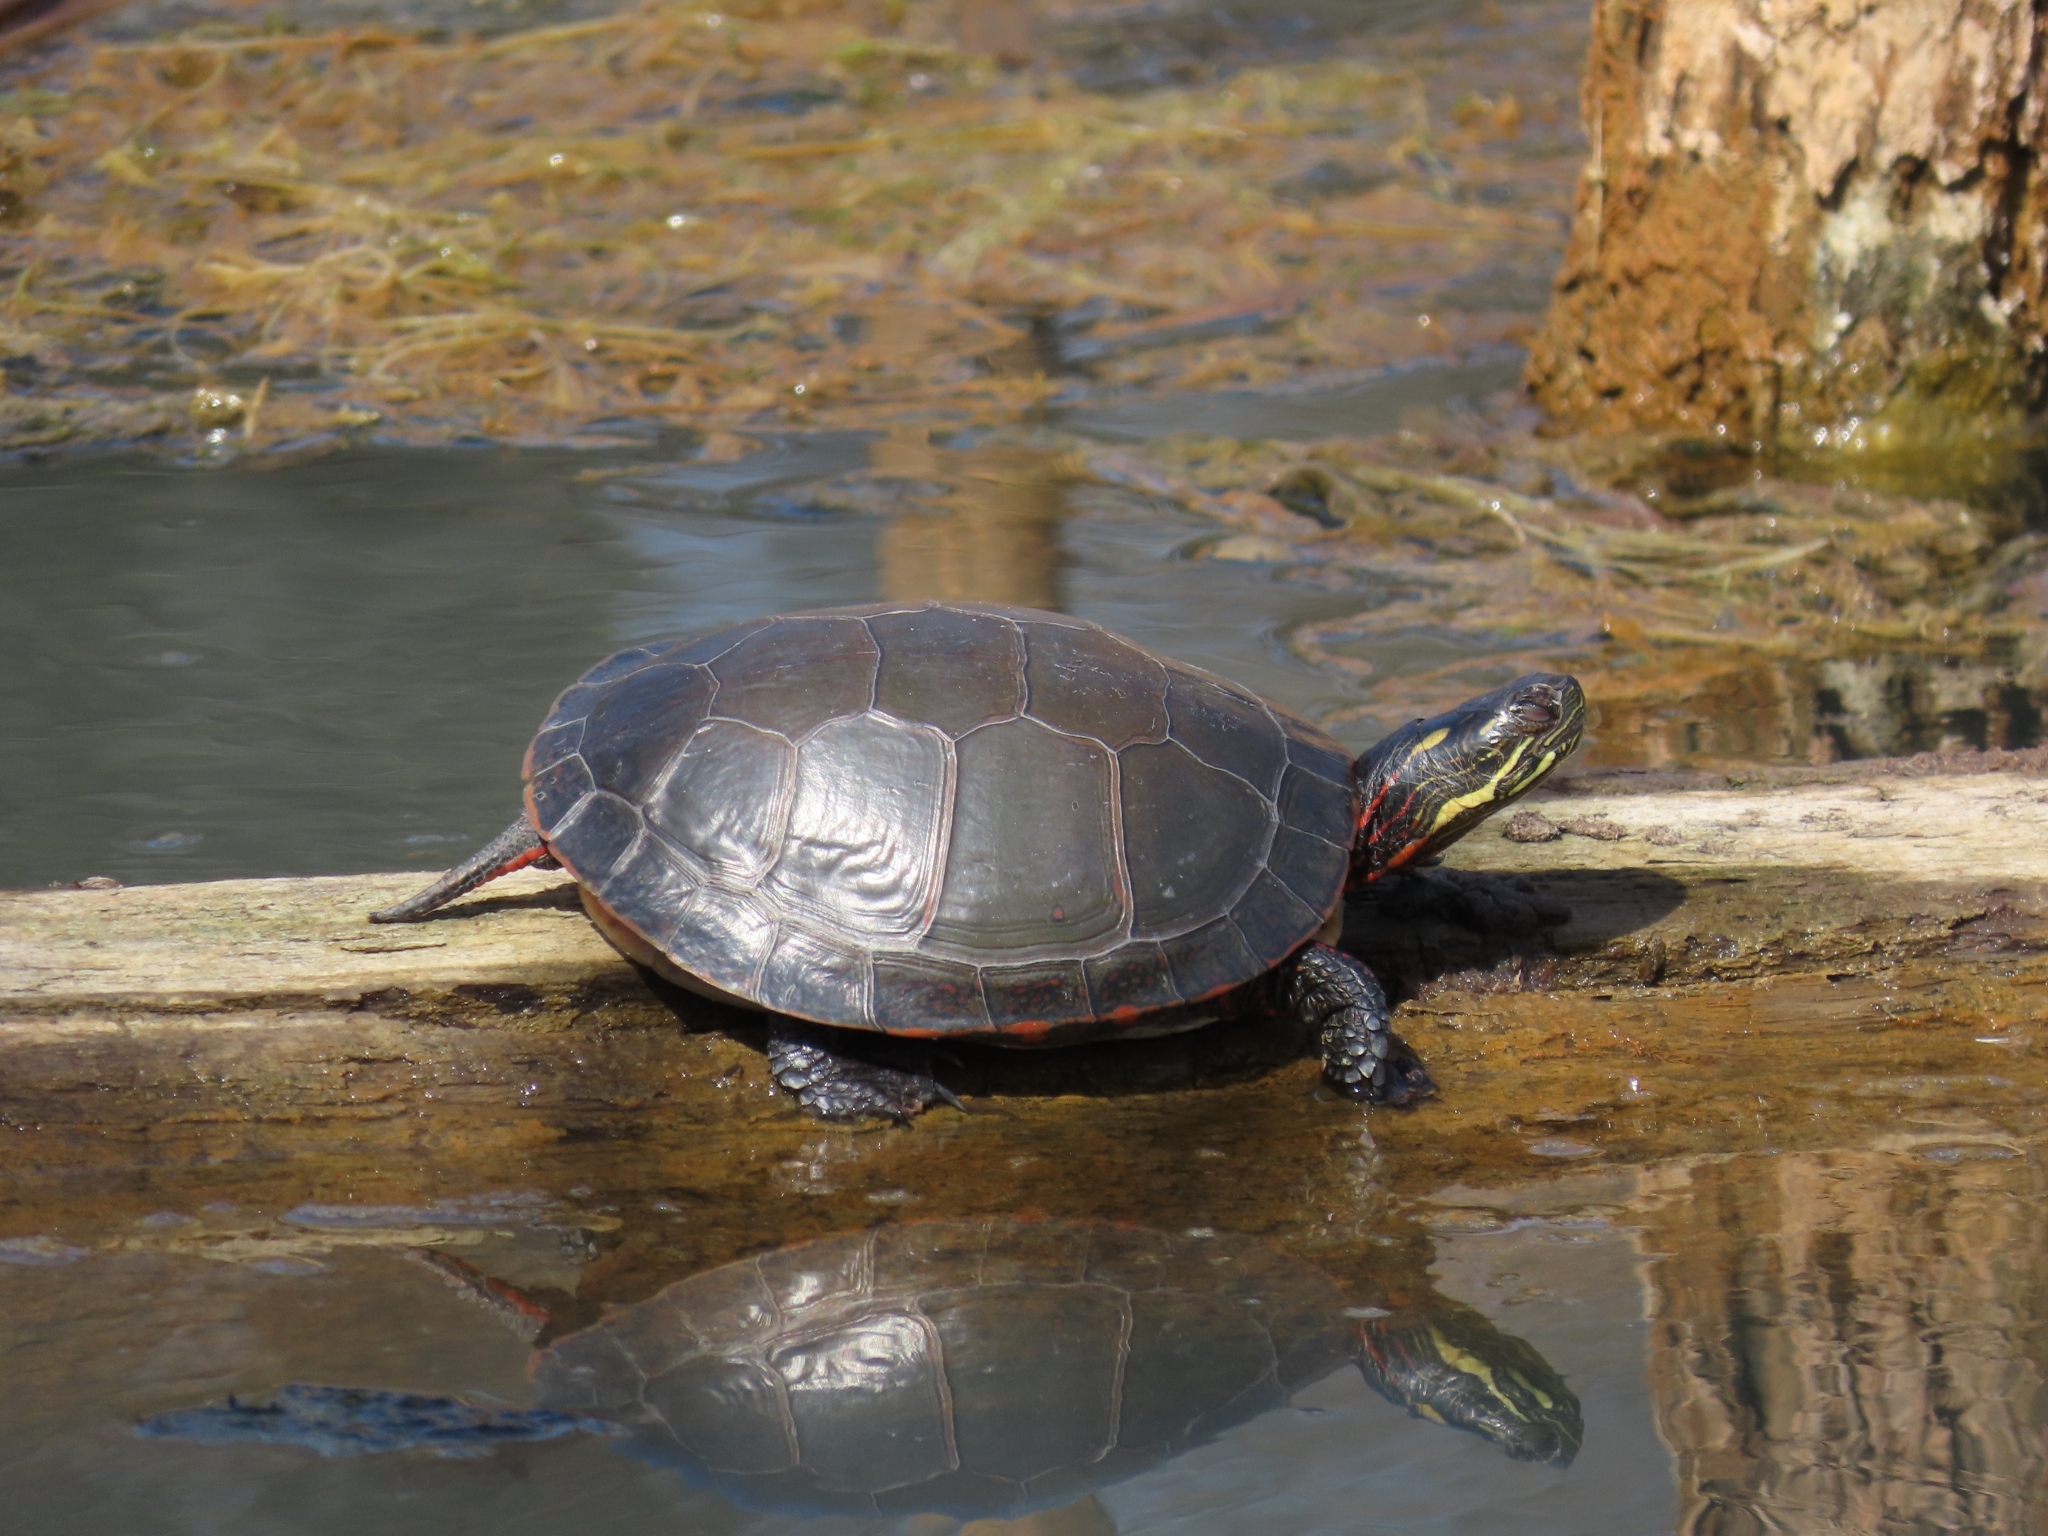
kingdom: Animalia
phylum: Chordata
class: Testudines
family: Emydidae
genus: Chrysemys
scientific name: Chrysemys picta
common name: Painted turtle
